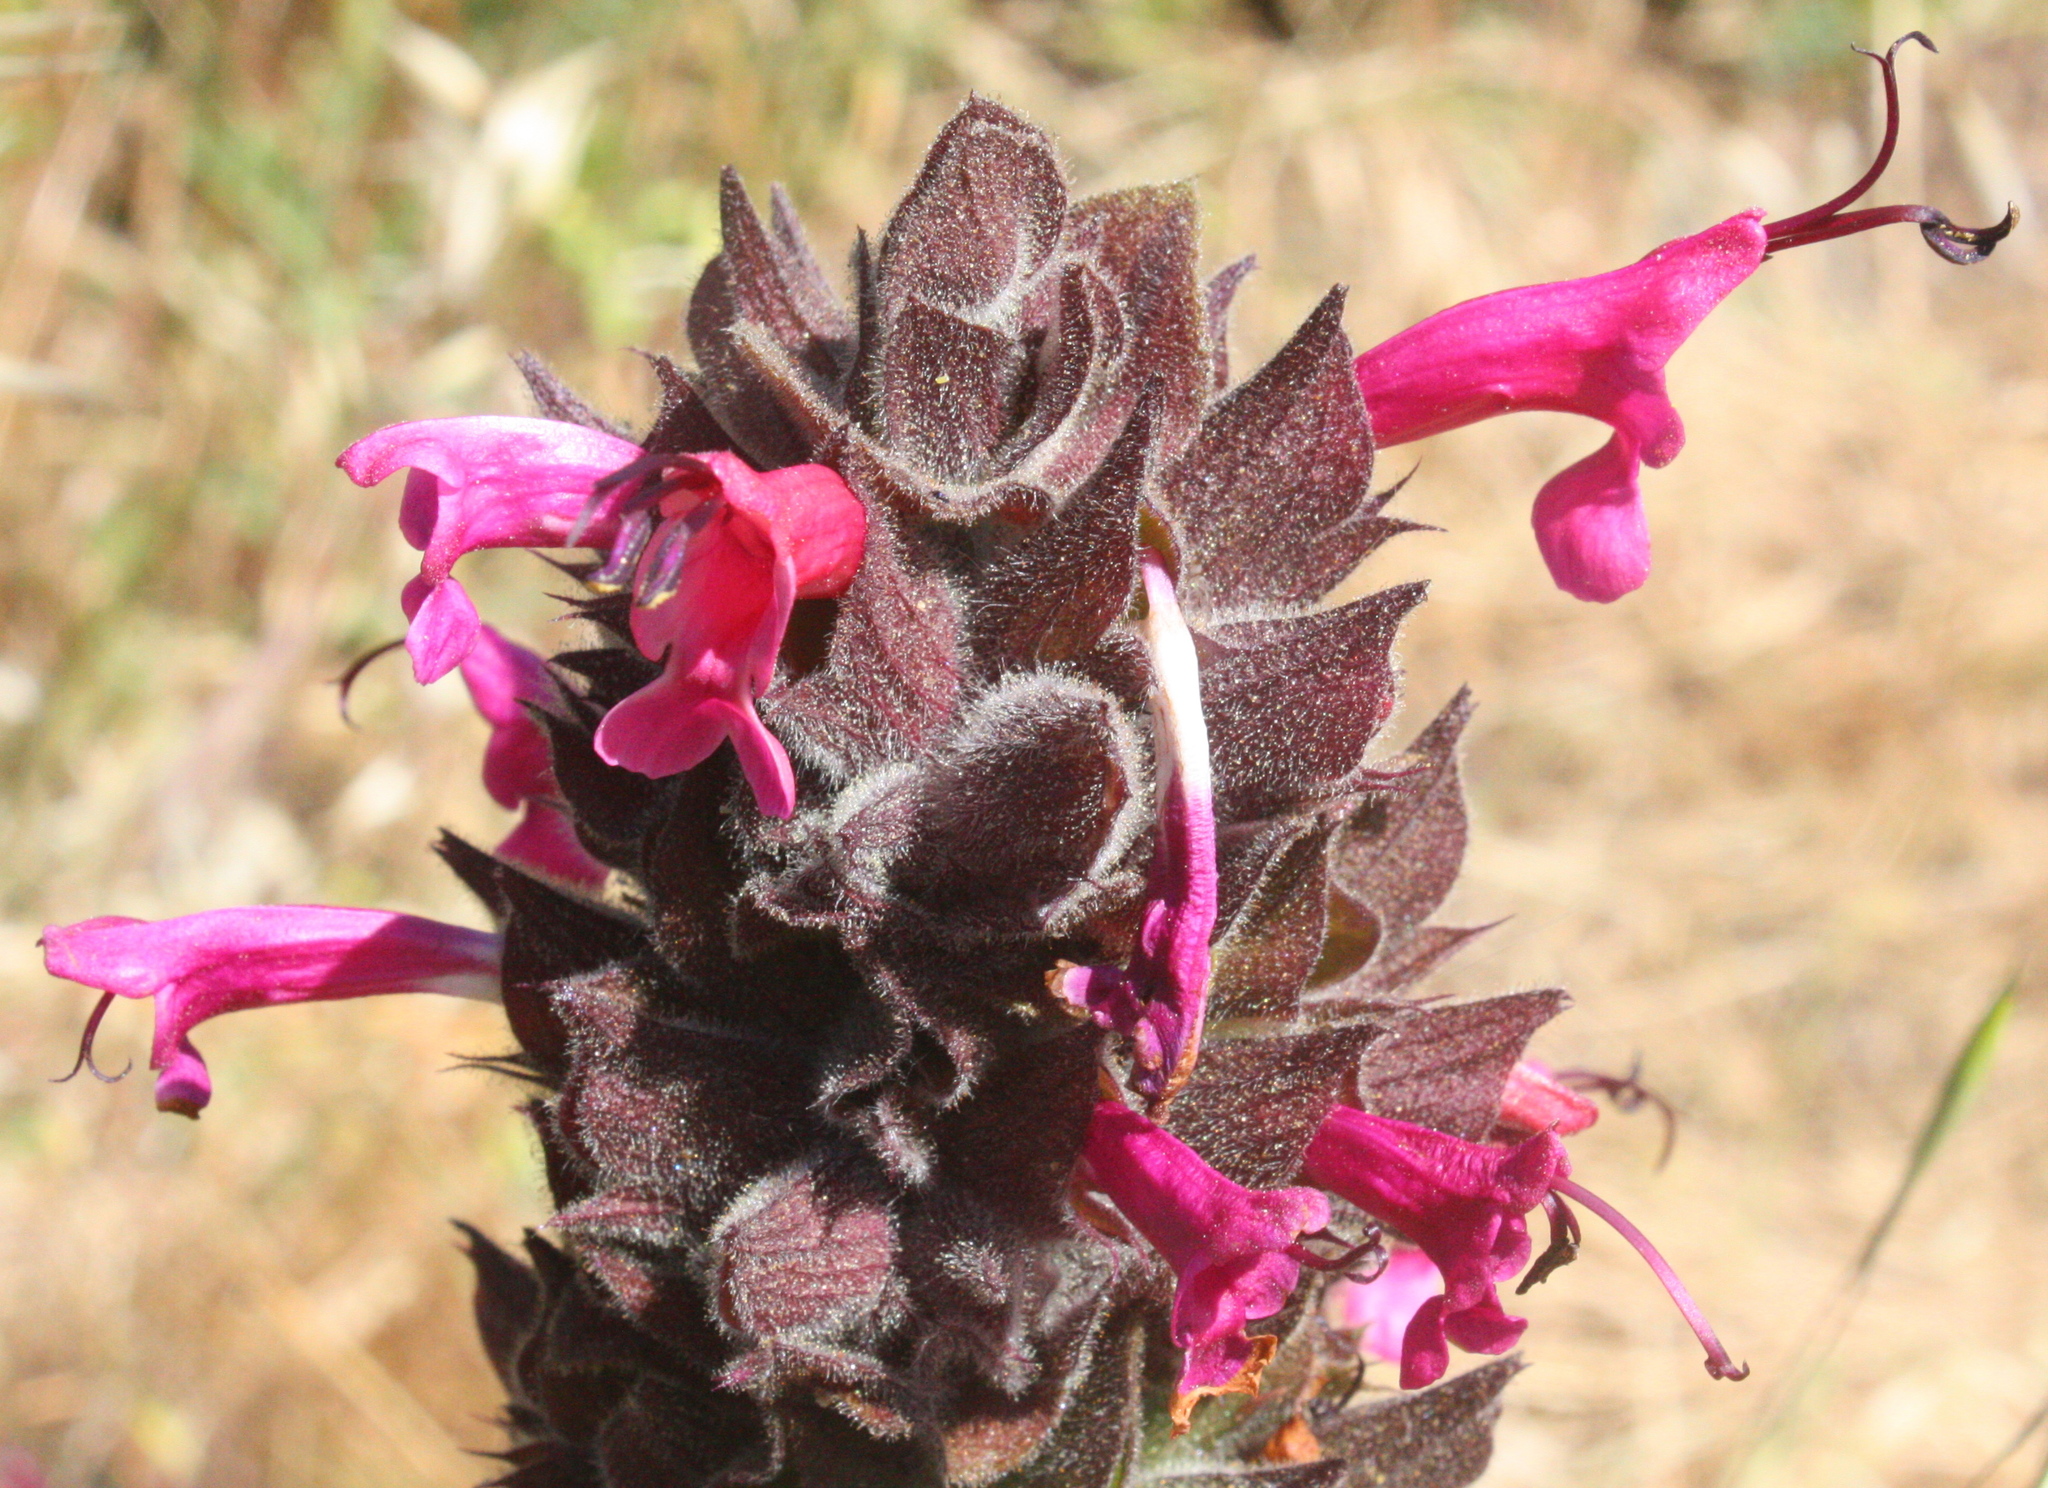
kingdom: Plantae
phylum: Tracheophyta
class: Magnoliopsida
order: Lamiales
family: Lamiaceae
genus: Salvia
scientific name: Salvia spathacea
